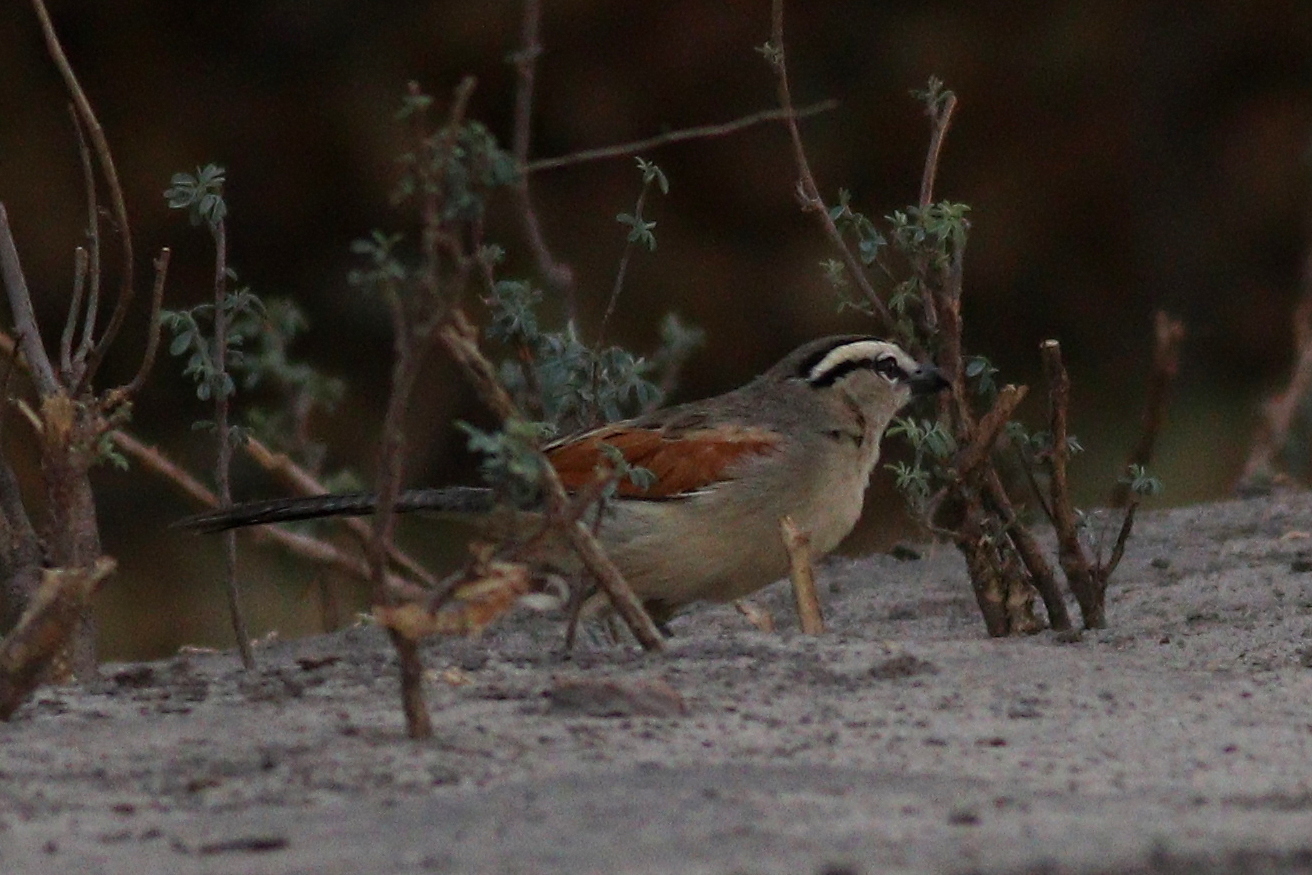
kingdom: Animalia
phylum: Chordata
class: Aves
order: Passeriformes
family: Malaconotidae
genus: Tchagra
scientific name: Tchagra australis
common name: Brown-crowned tchagra
